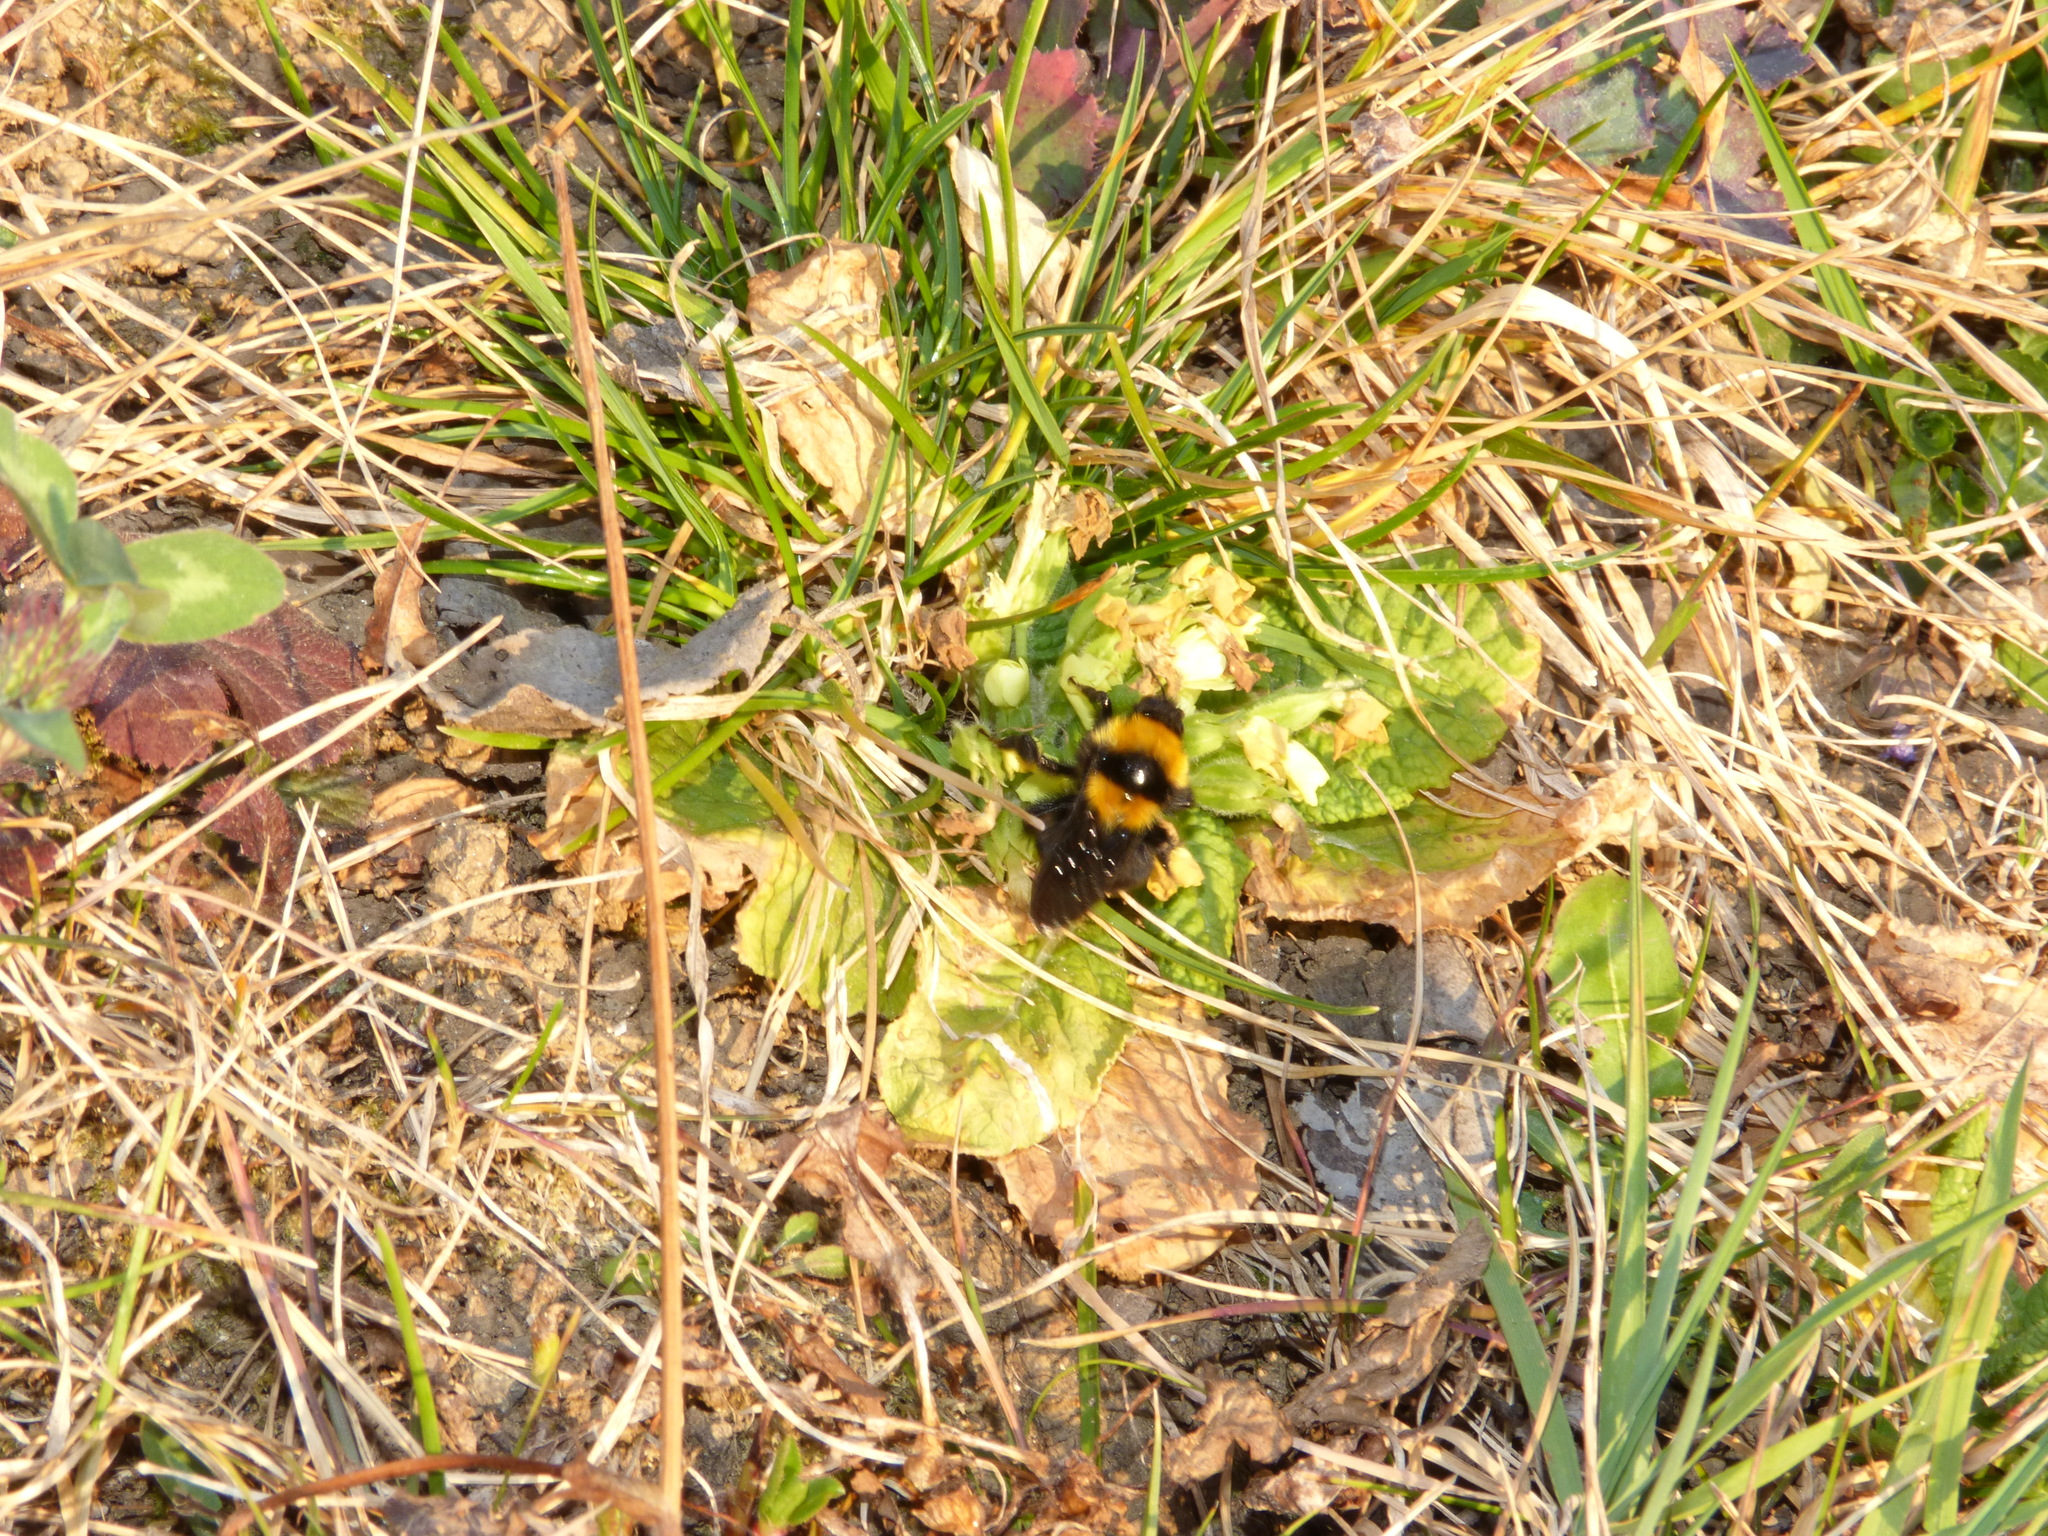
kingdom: Animalia
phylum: Arthropoda
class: Insecta
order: Hymenoptera
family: Apidae
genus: Bombus
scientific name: Bombus argillaceus
